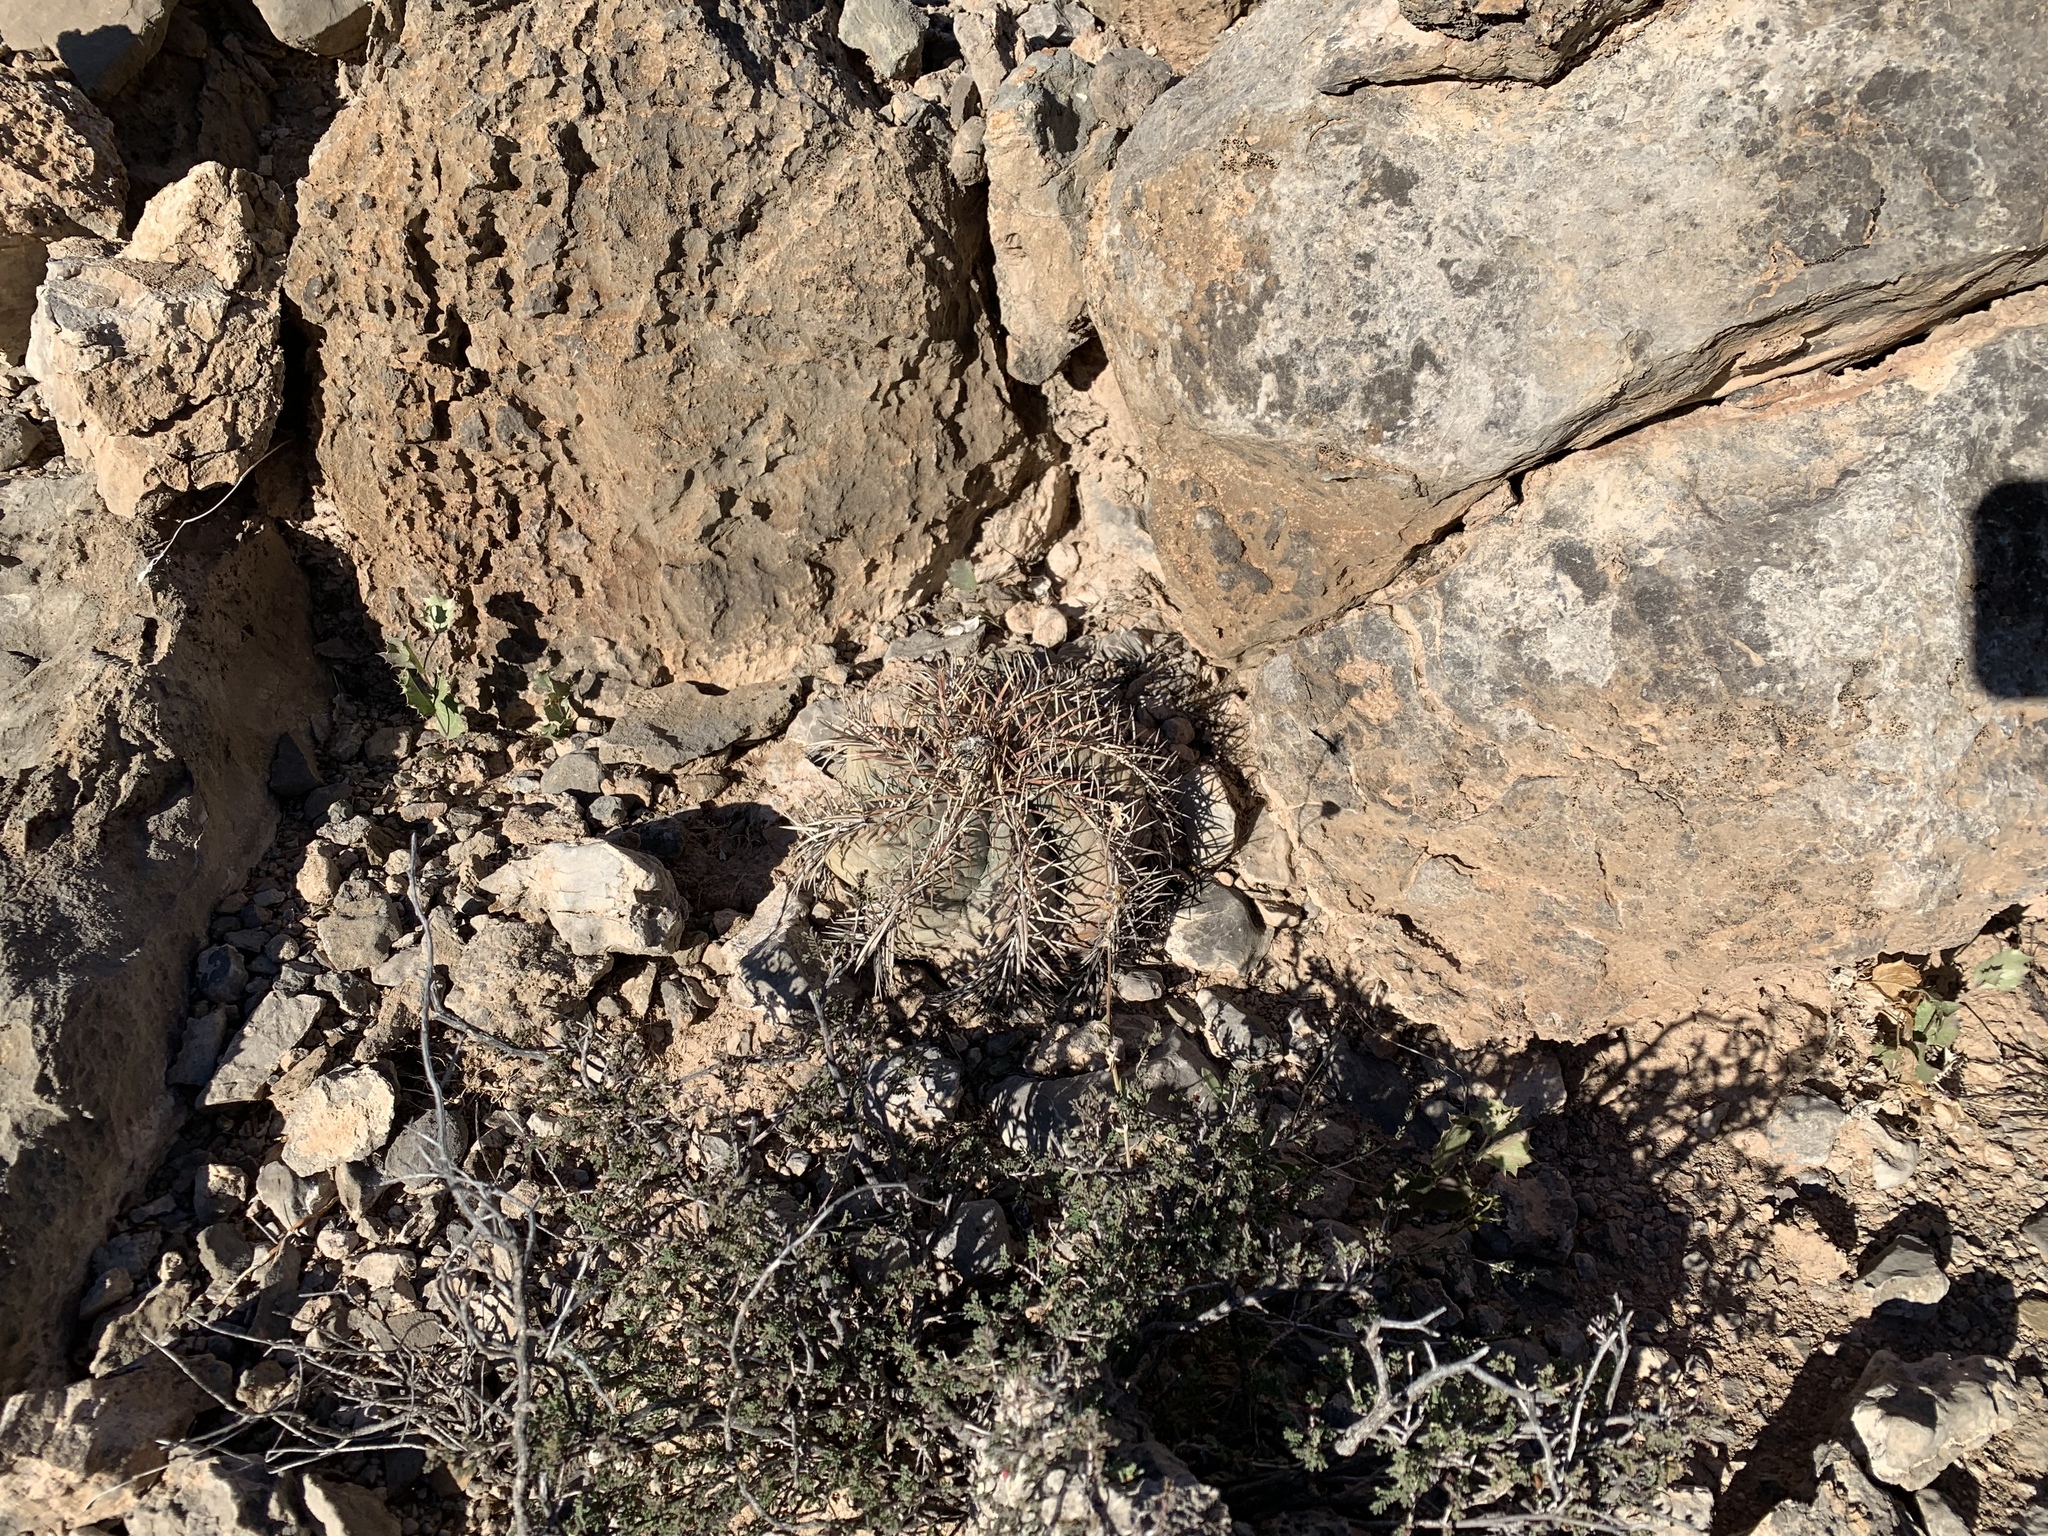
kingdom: Plantae
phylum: Tracheophyta
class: Magnoliopsida
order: Caryophyllales
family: Cactaceae
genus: Echinocactus
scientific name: Echinocactus horizonthalonius
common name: Devilshead
